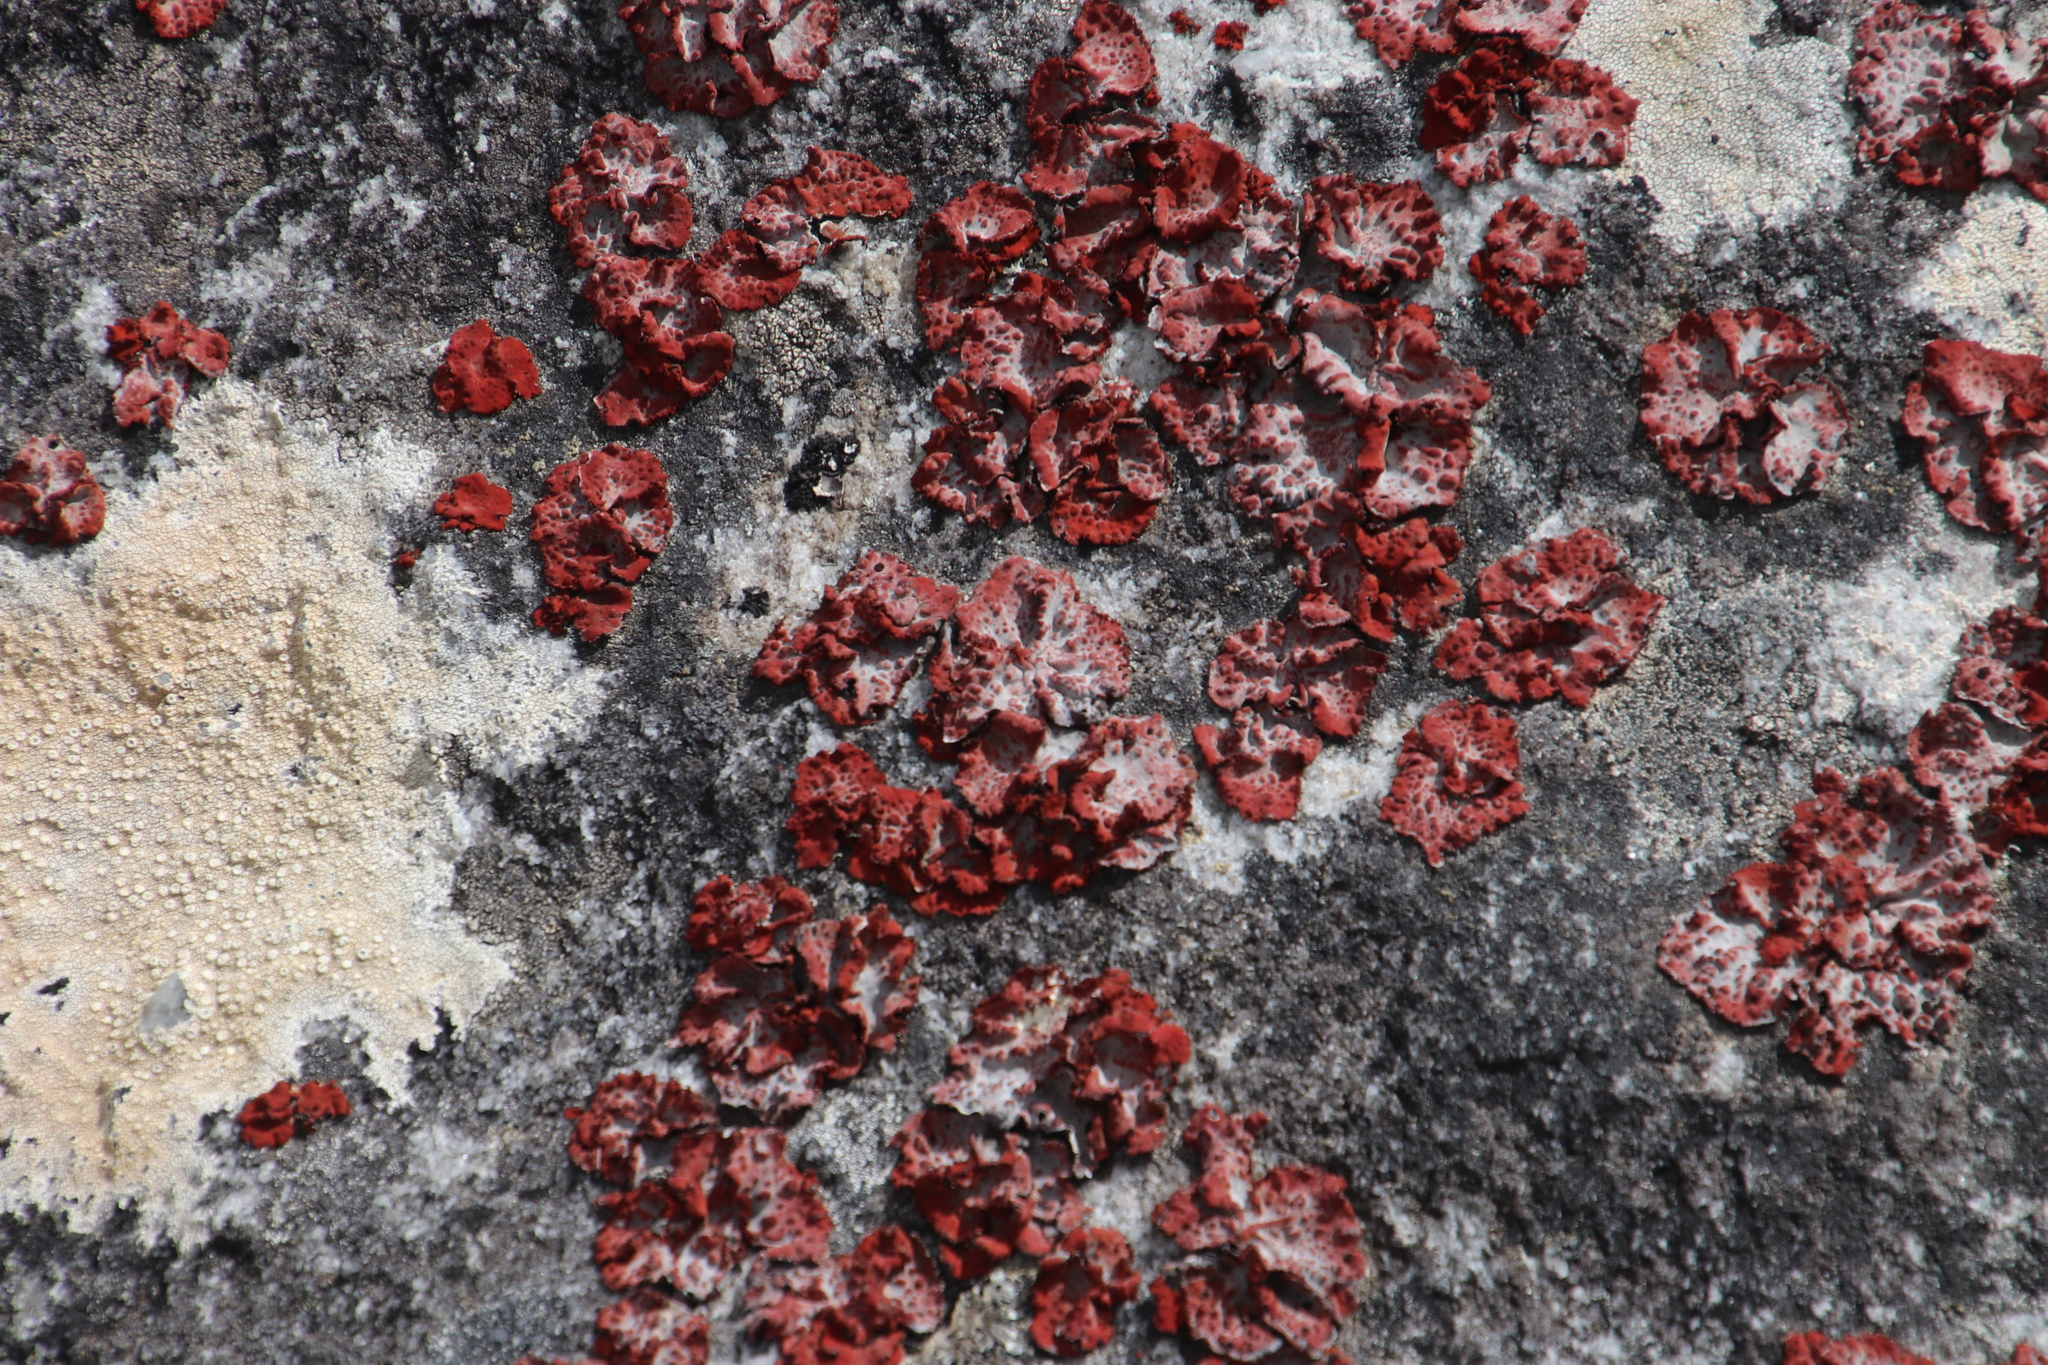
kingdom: Fungi
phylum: Ascomycota
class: Lecanoromycetes
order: Umbilicariales
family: Umbilicariaceae
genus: Lasallia
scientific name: Lasallia rubiginosa
